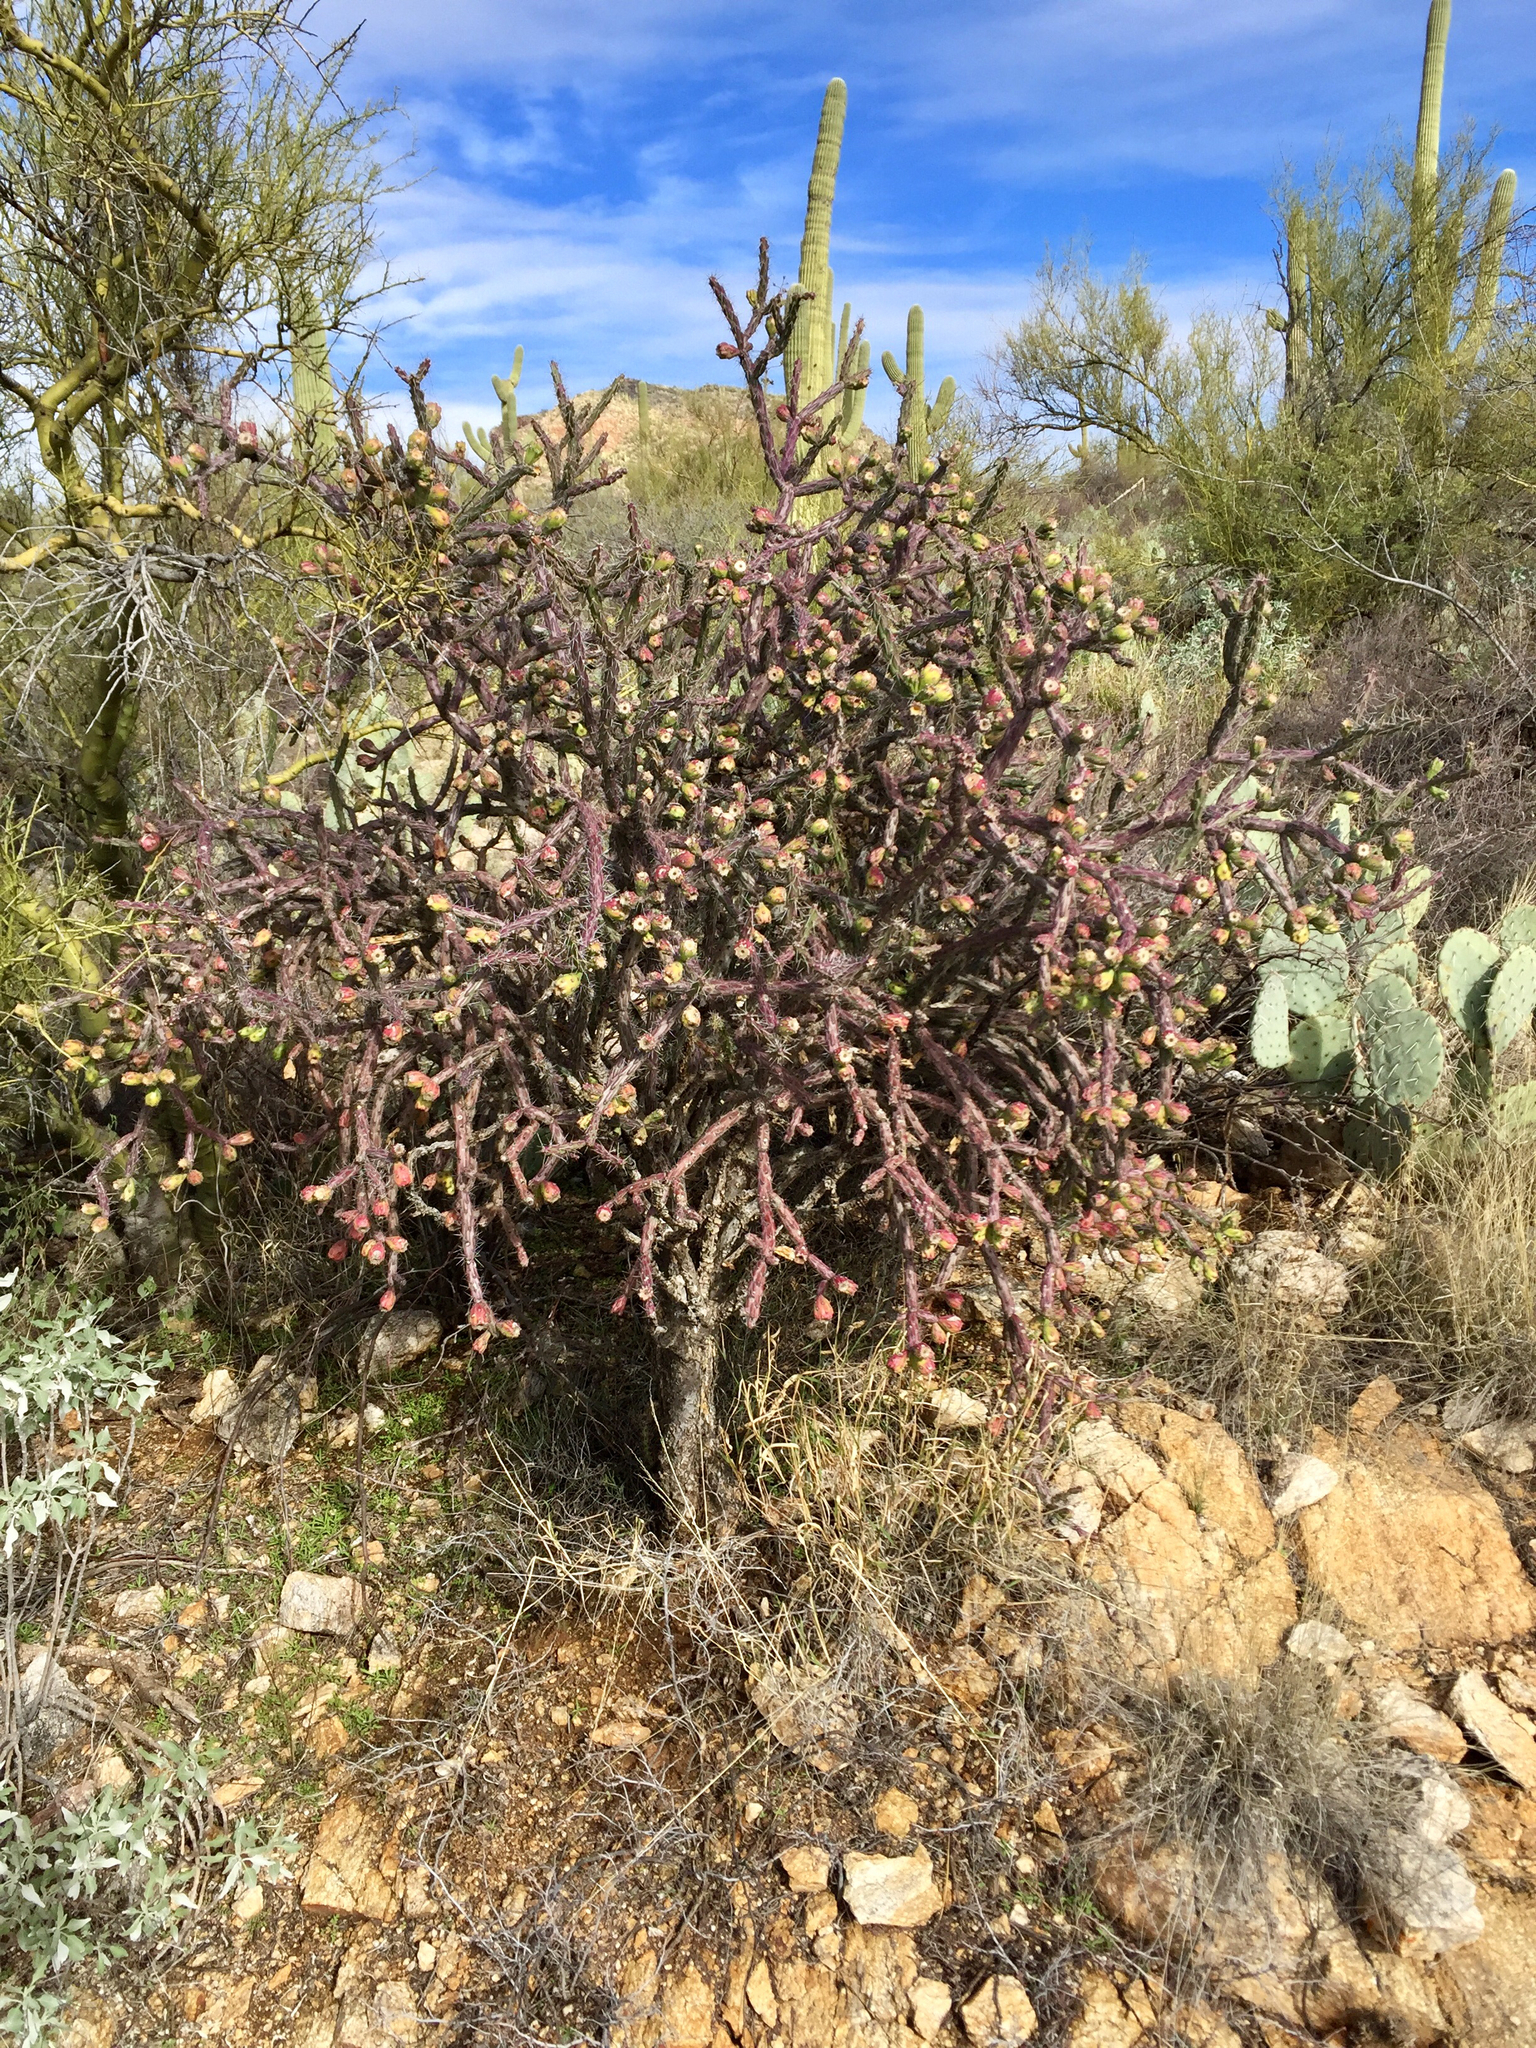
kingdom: Plantae
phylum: Tracheophyta
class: Magnoliopsida
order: Caryophyllales
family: Cactaceae
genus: Cylindropuntia
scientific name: Cylindropuntia thurberi
